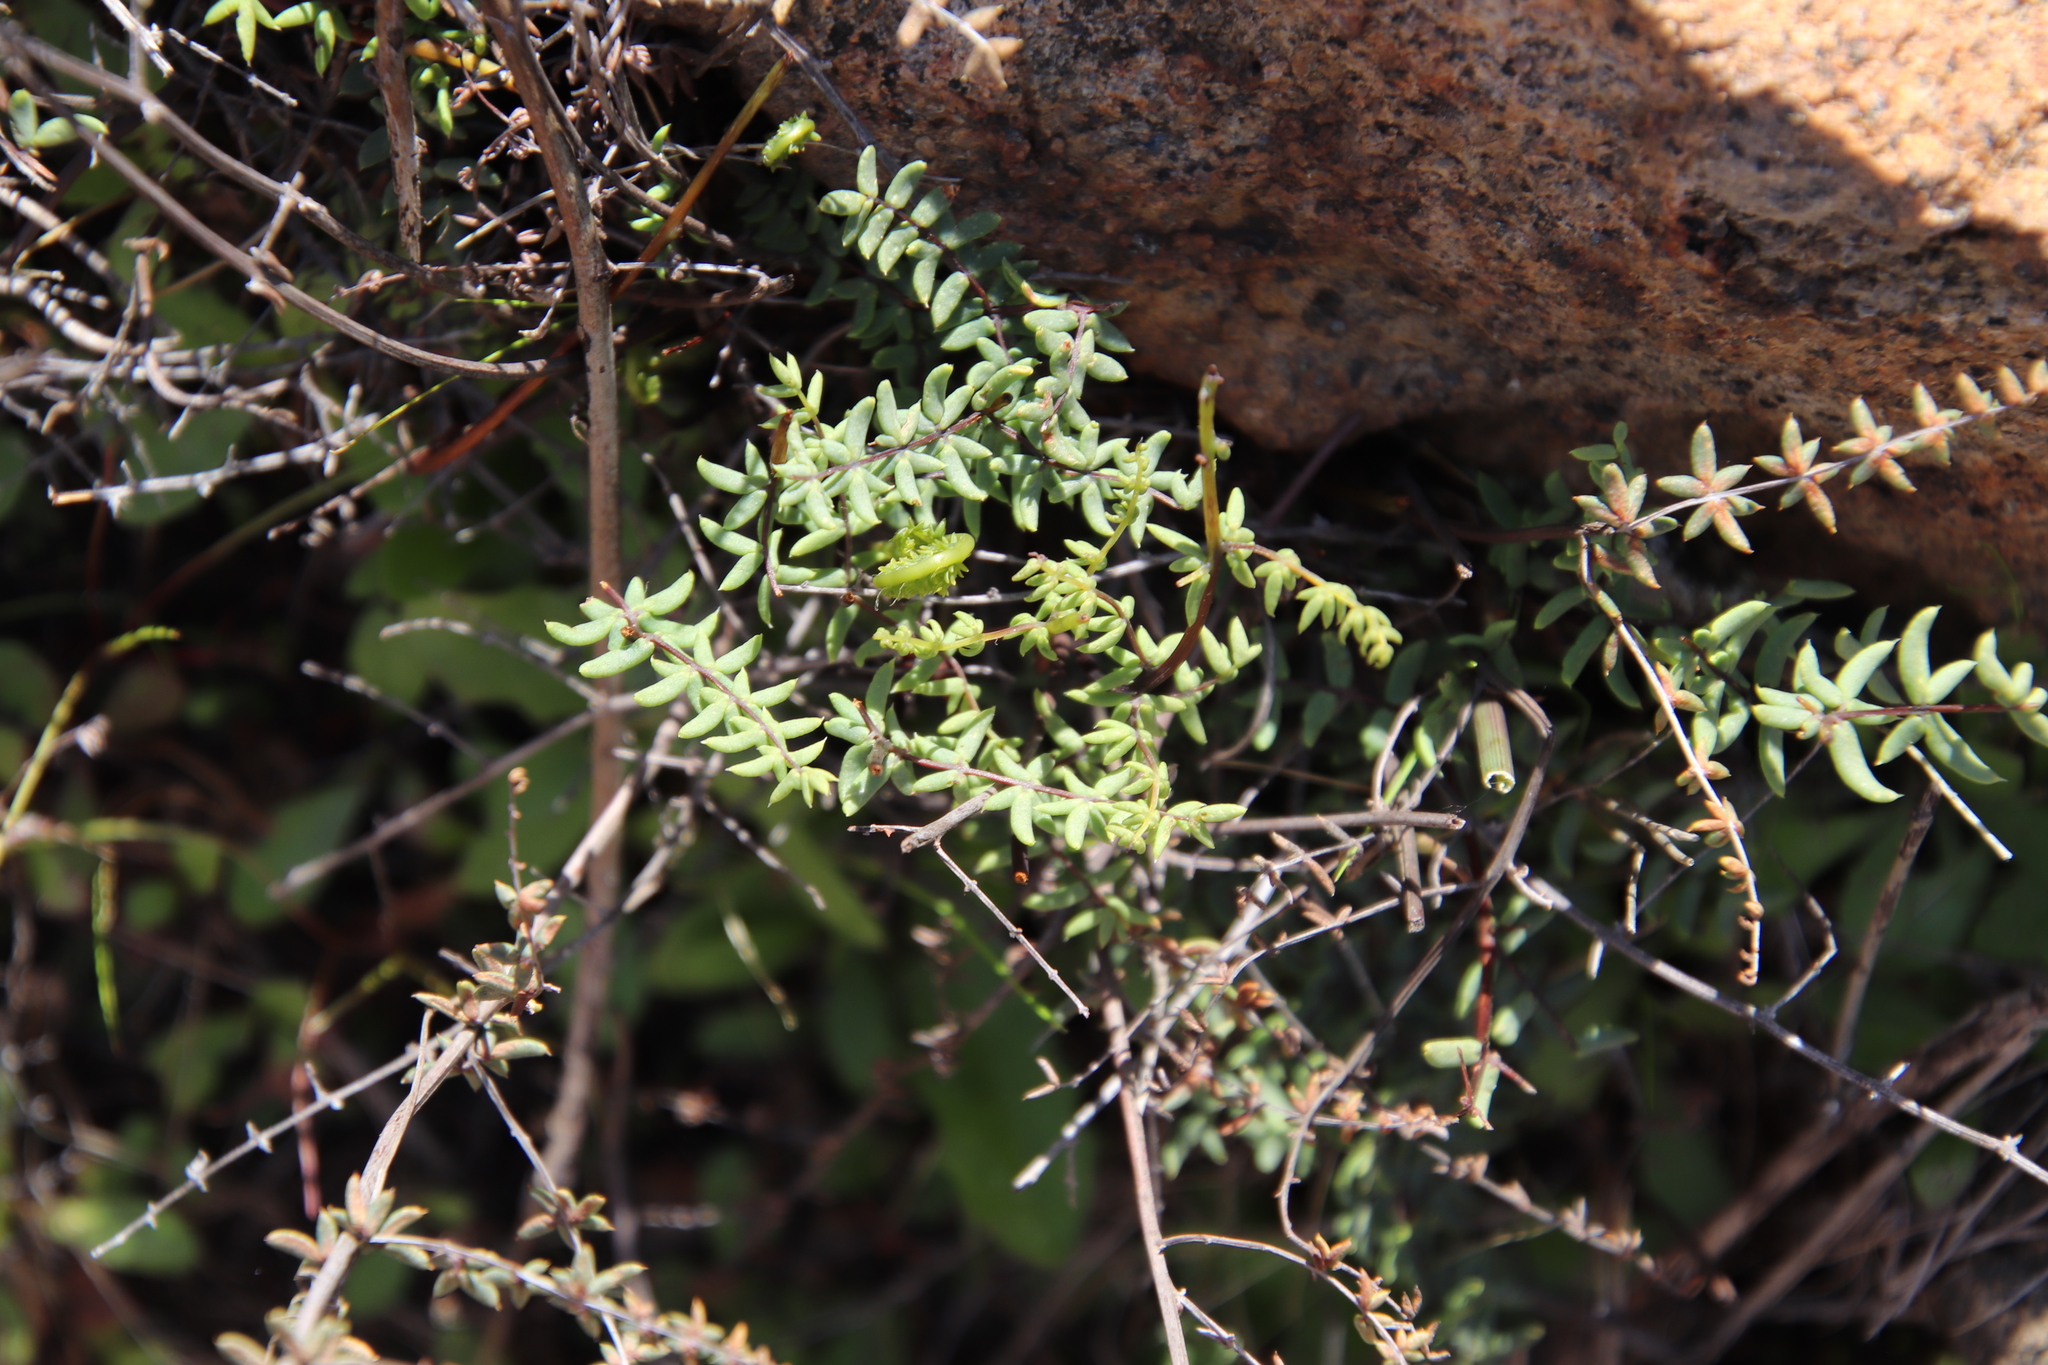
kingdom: Plantae
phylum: Tracheophyta
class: Polypodiopsida
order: Polypodiales
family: Pteridaceae
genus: Pellaea
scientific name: Pellaea mucronata
